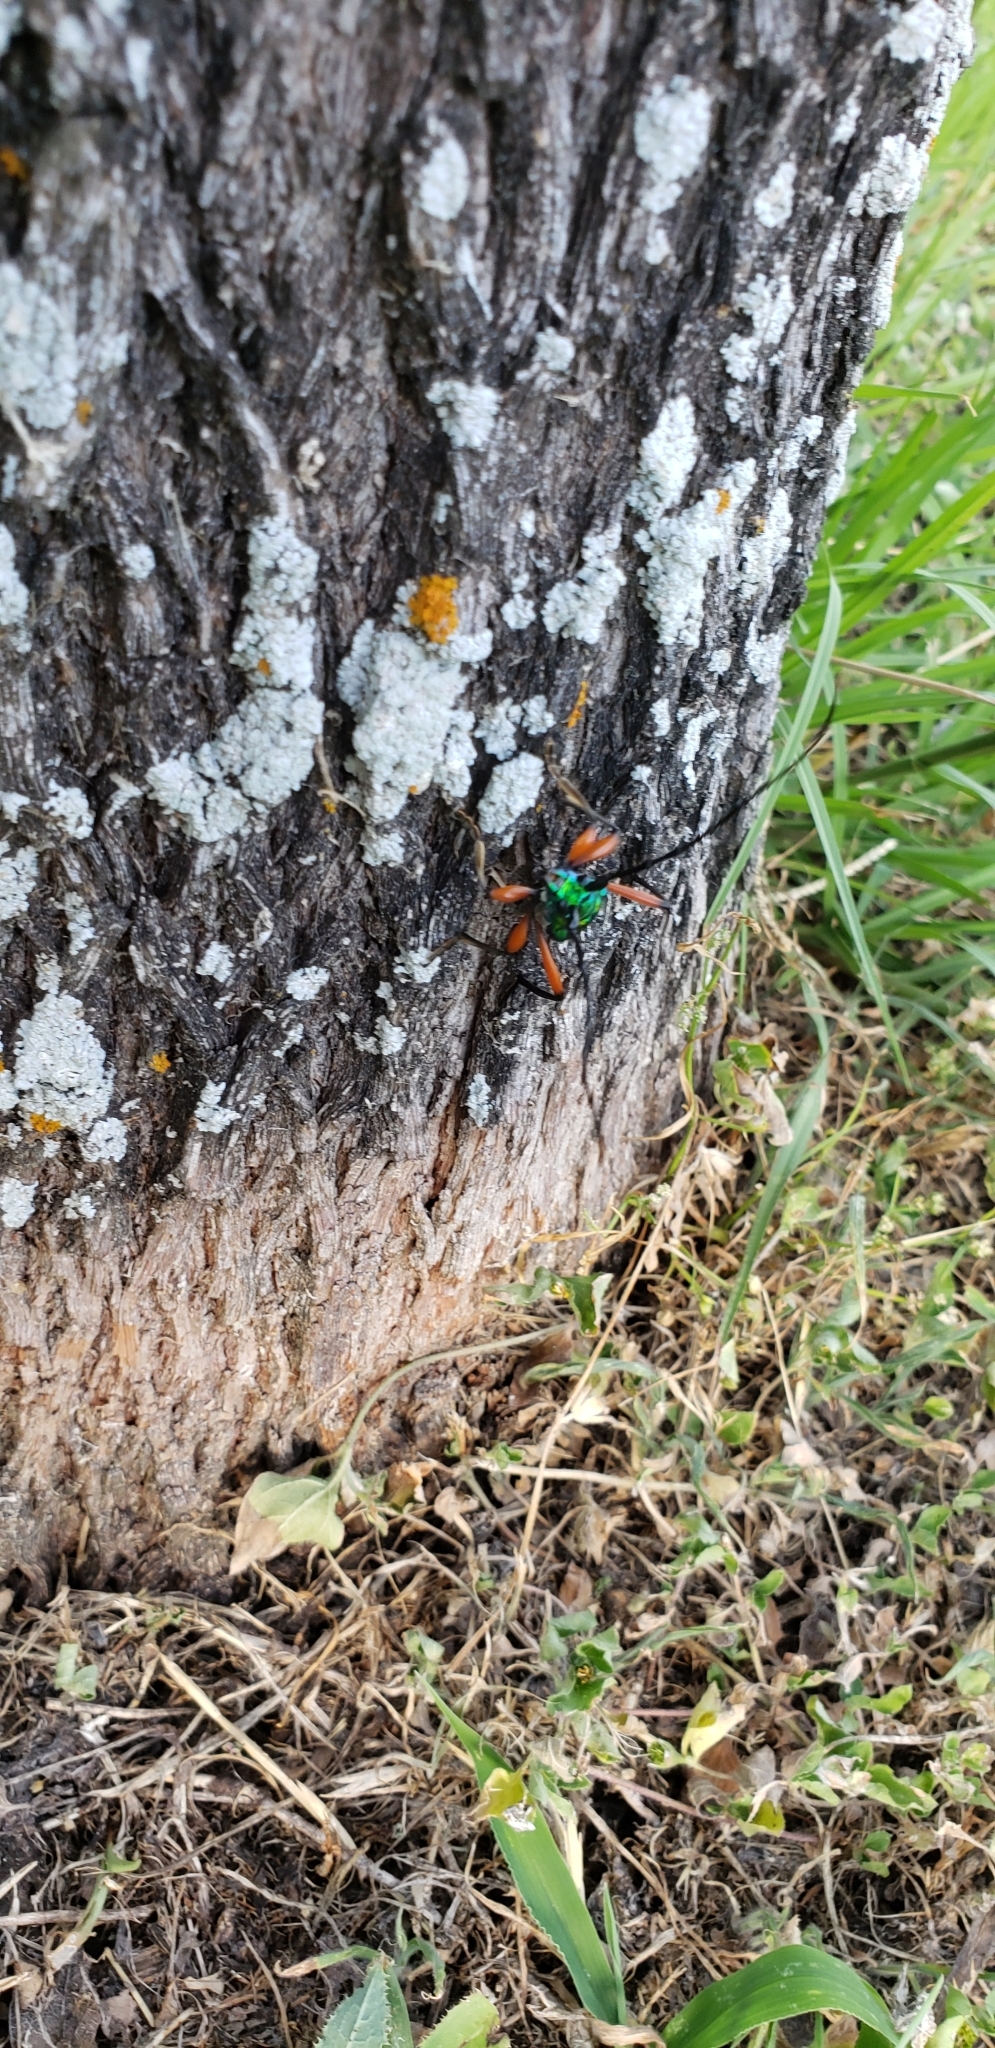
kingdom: Animalia
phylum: Arthropoda
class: Insecta
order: Coleoptera
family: Cerambycidae
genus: Plinthocoelium
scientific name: Plinthocoelium suaveolens
